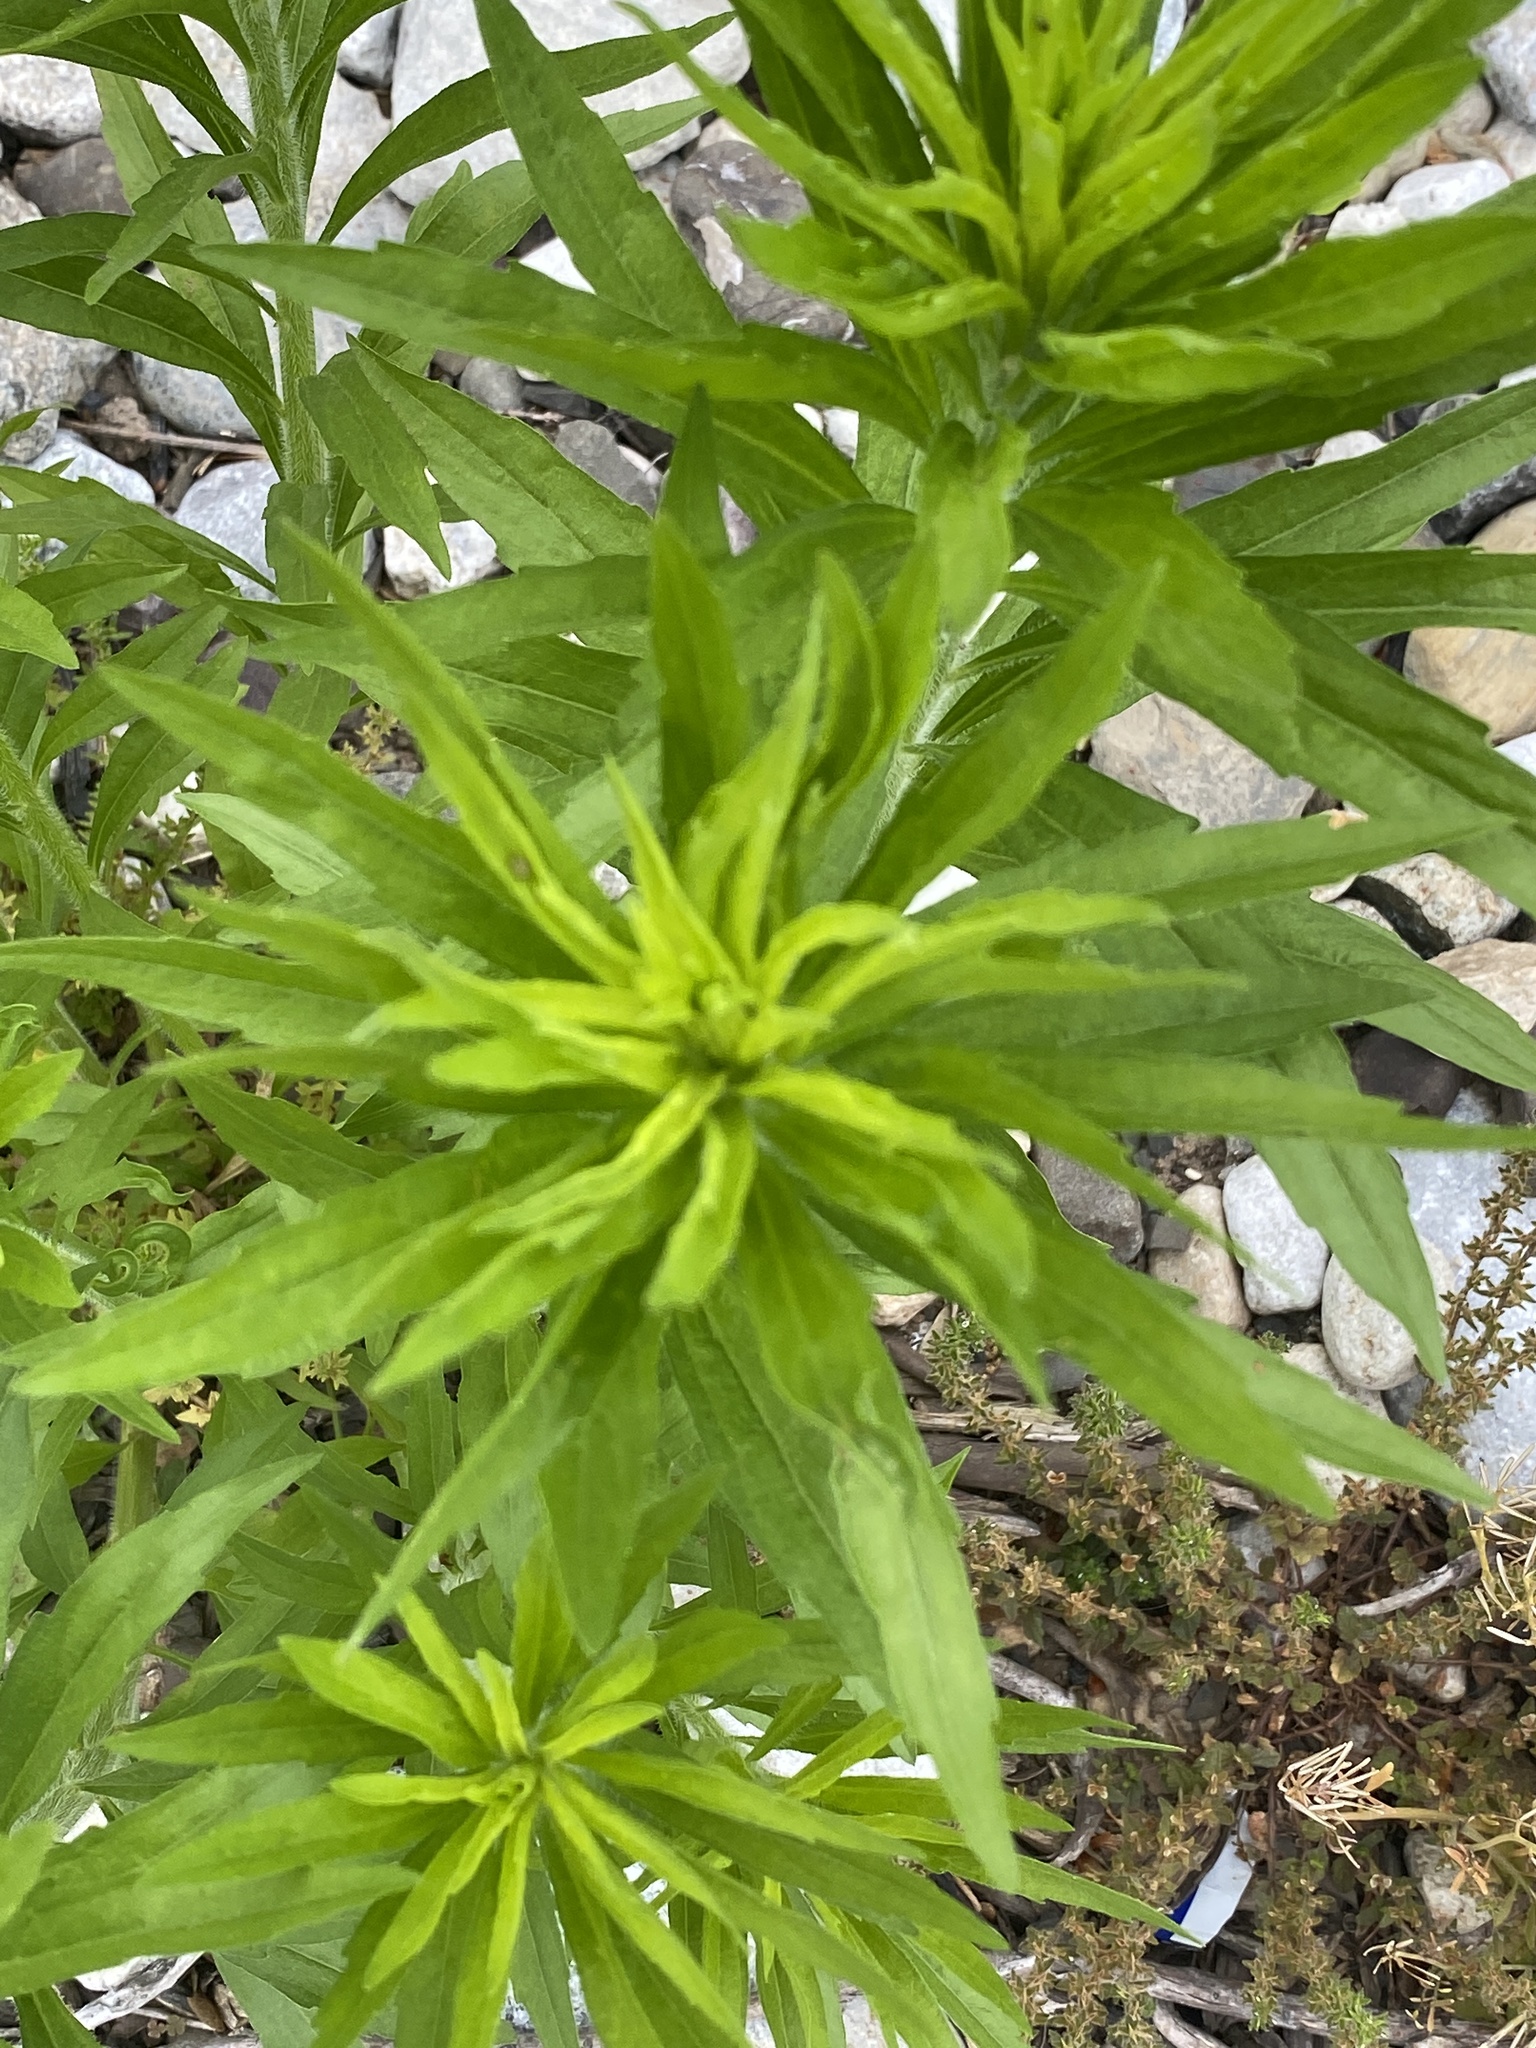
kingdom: Plantae
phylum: Tracheophyta
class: Magnoliopsida
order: Asterales
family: Asteraceae
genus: Erigeron
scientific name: Erigeron canadensis
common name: Canadian fleabane
